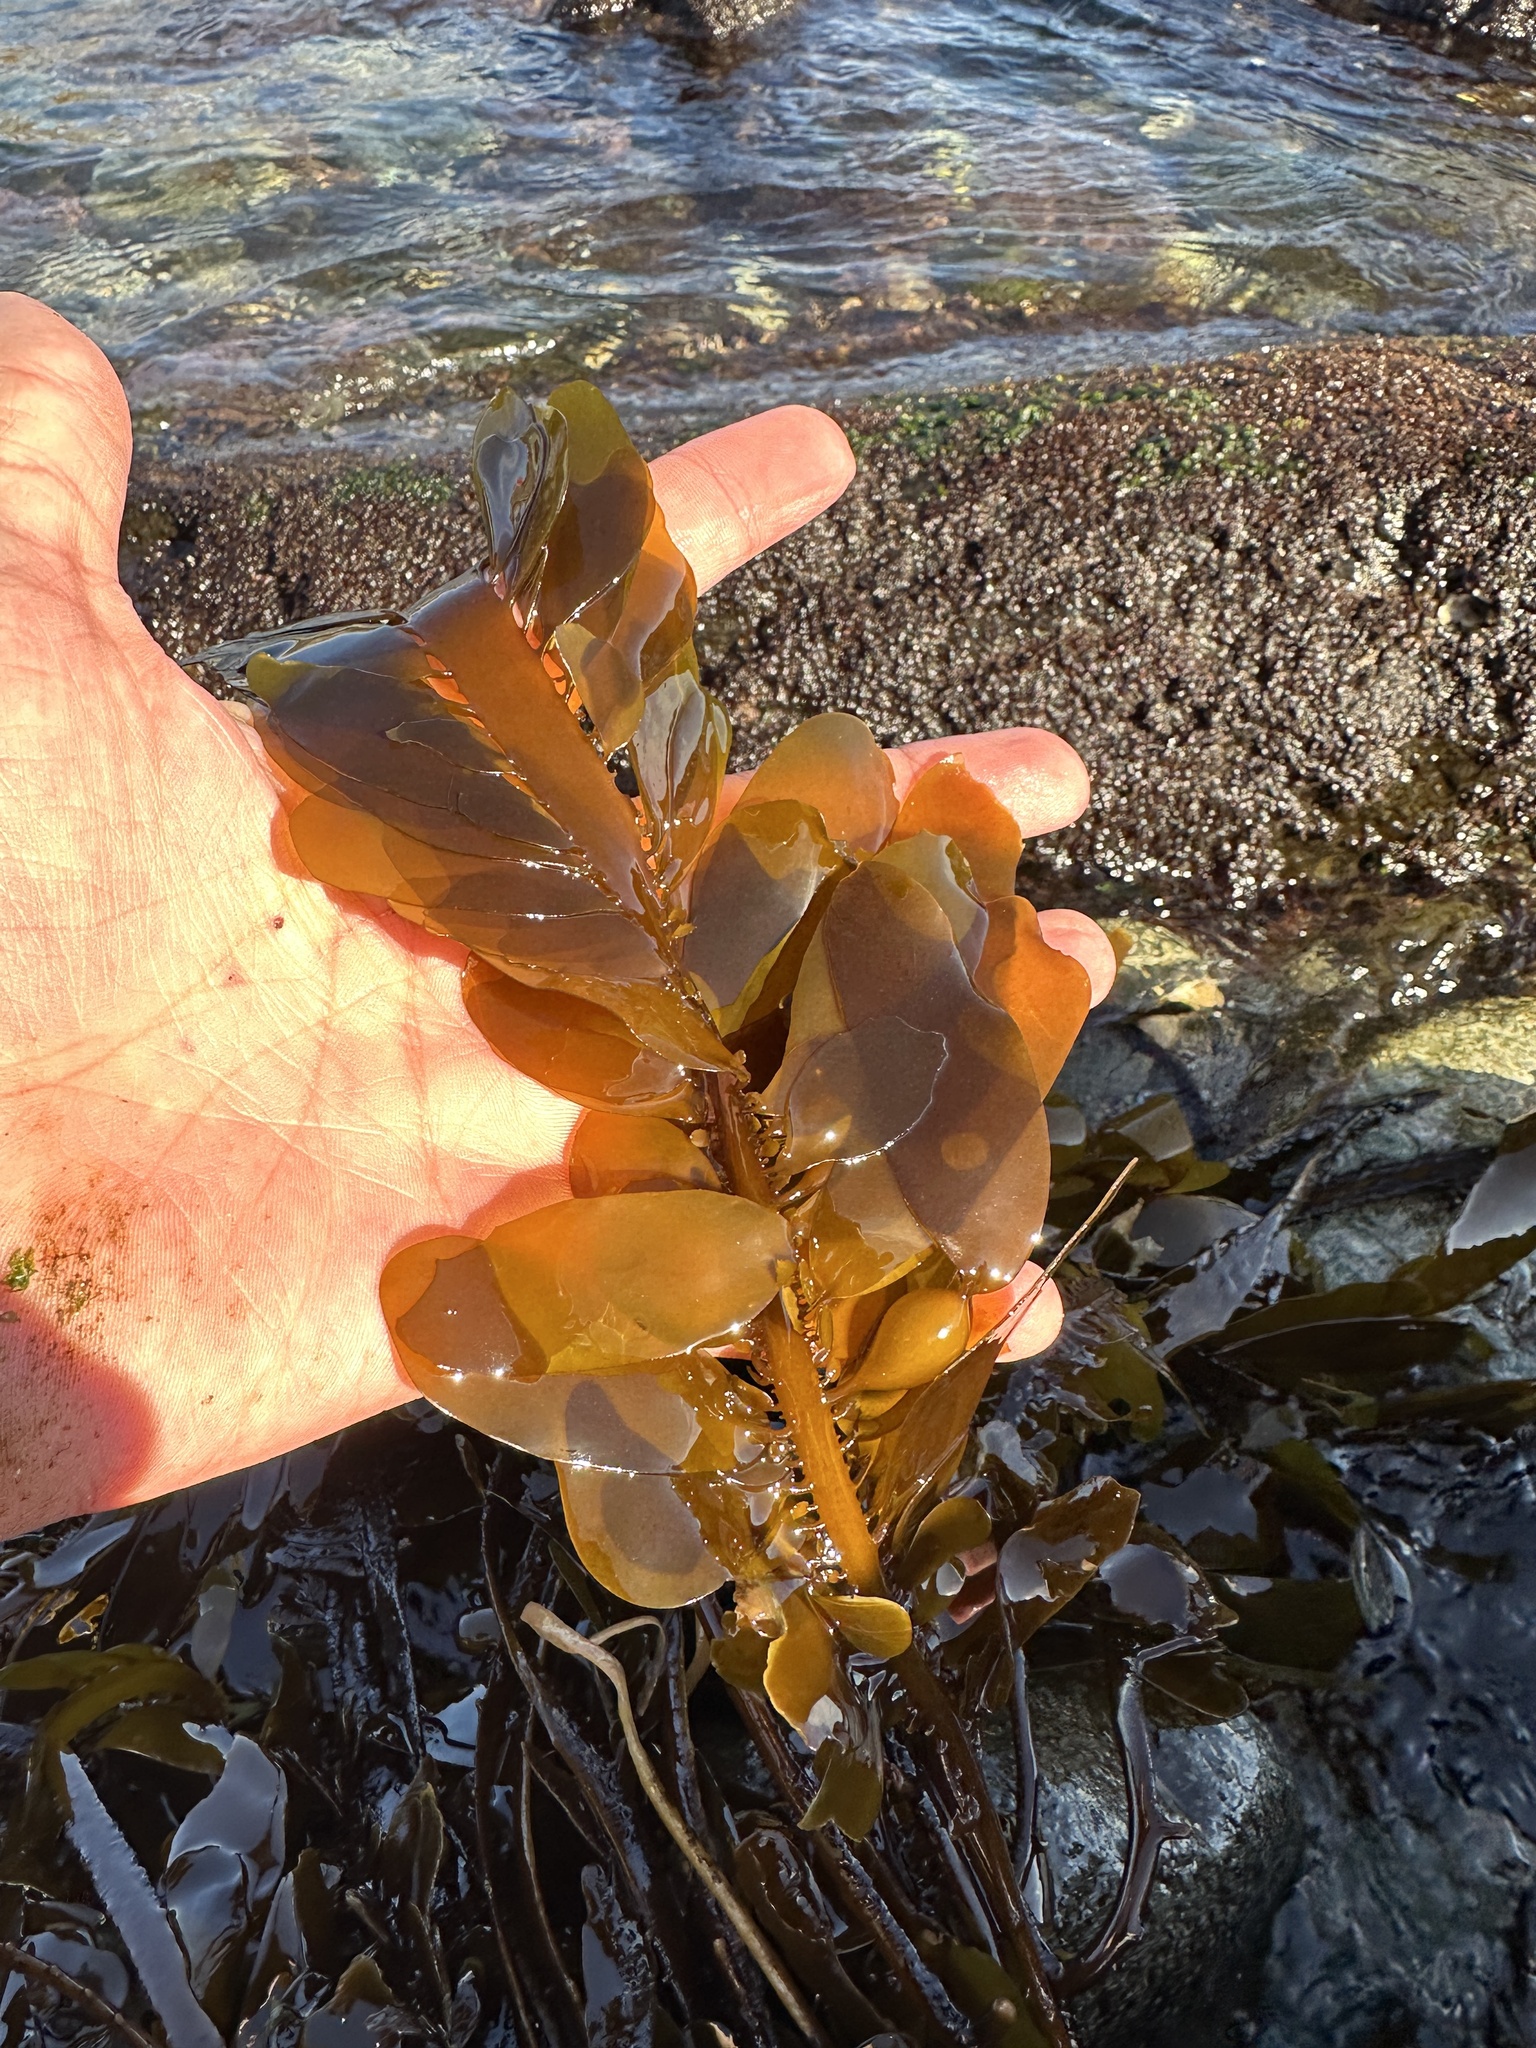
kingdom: Chromista
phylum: Ochrophyta
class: Phaeophyceae
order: Laminariales
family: Lessoniaceae
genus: Egregia
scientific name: Egregia menziesii
